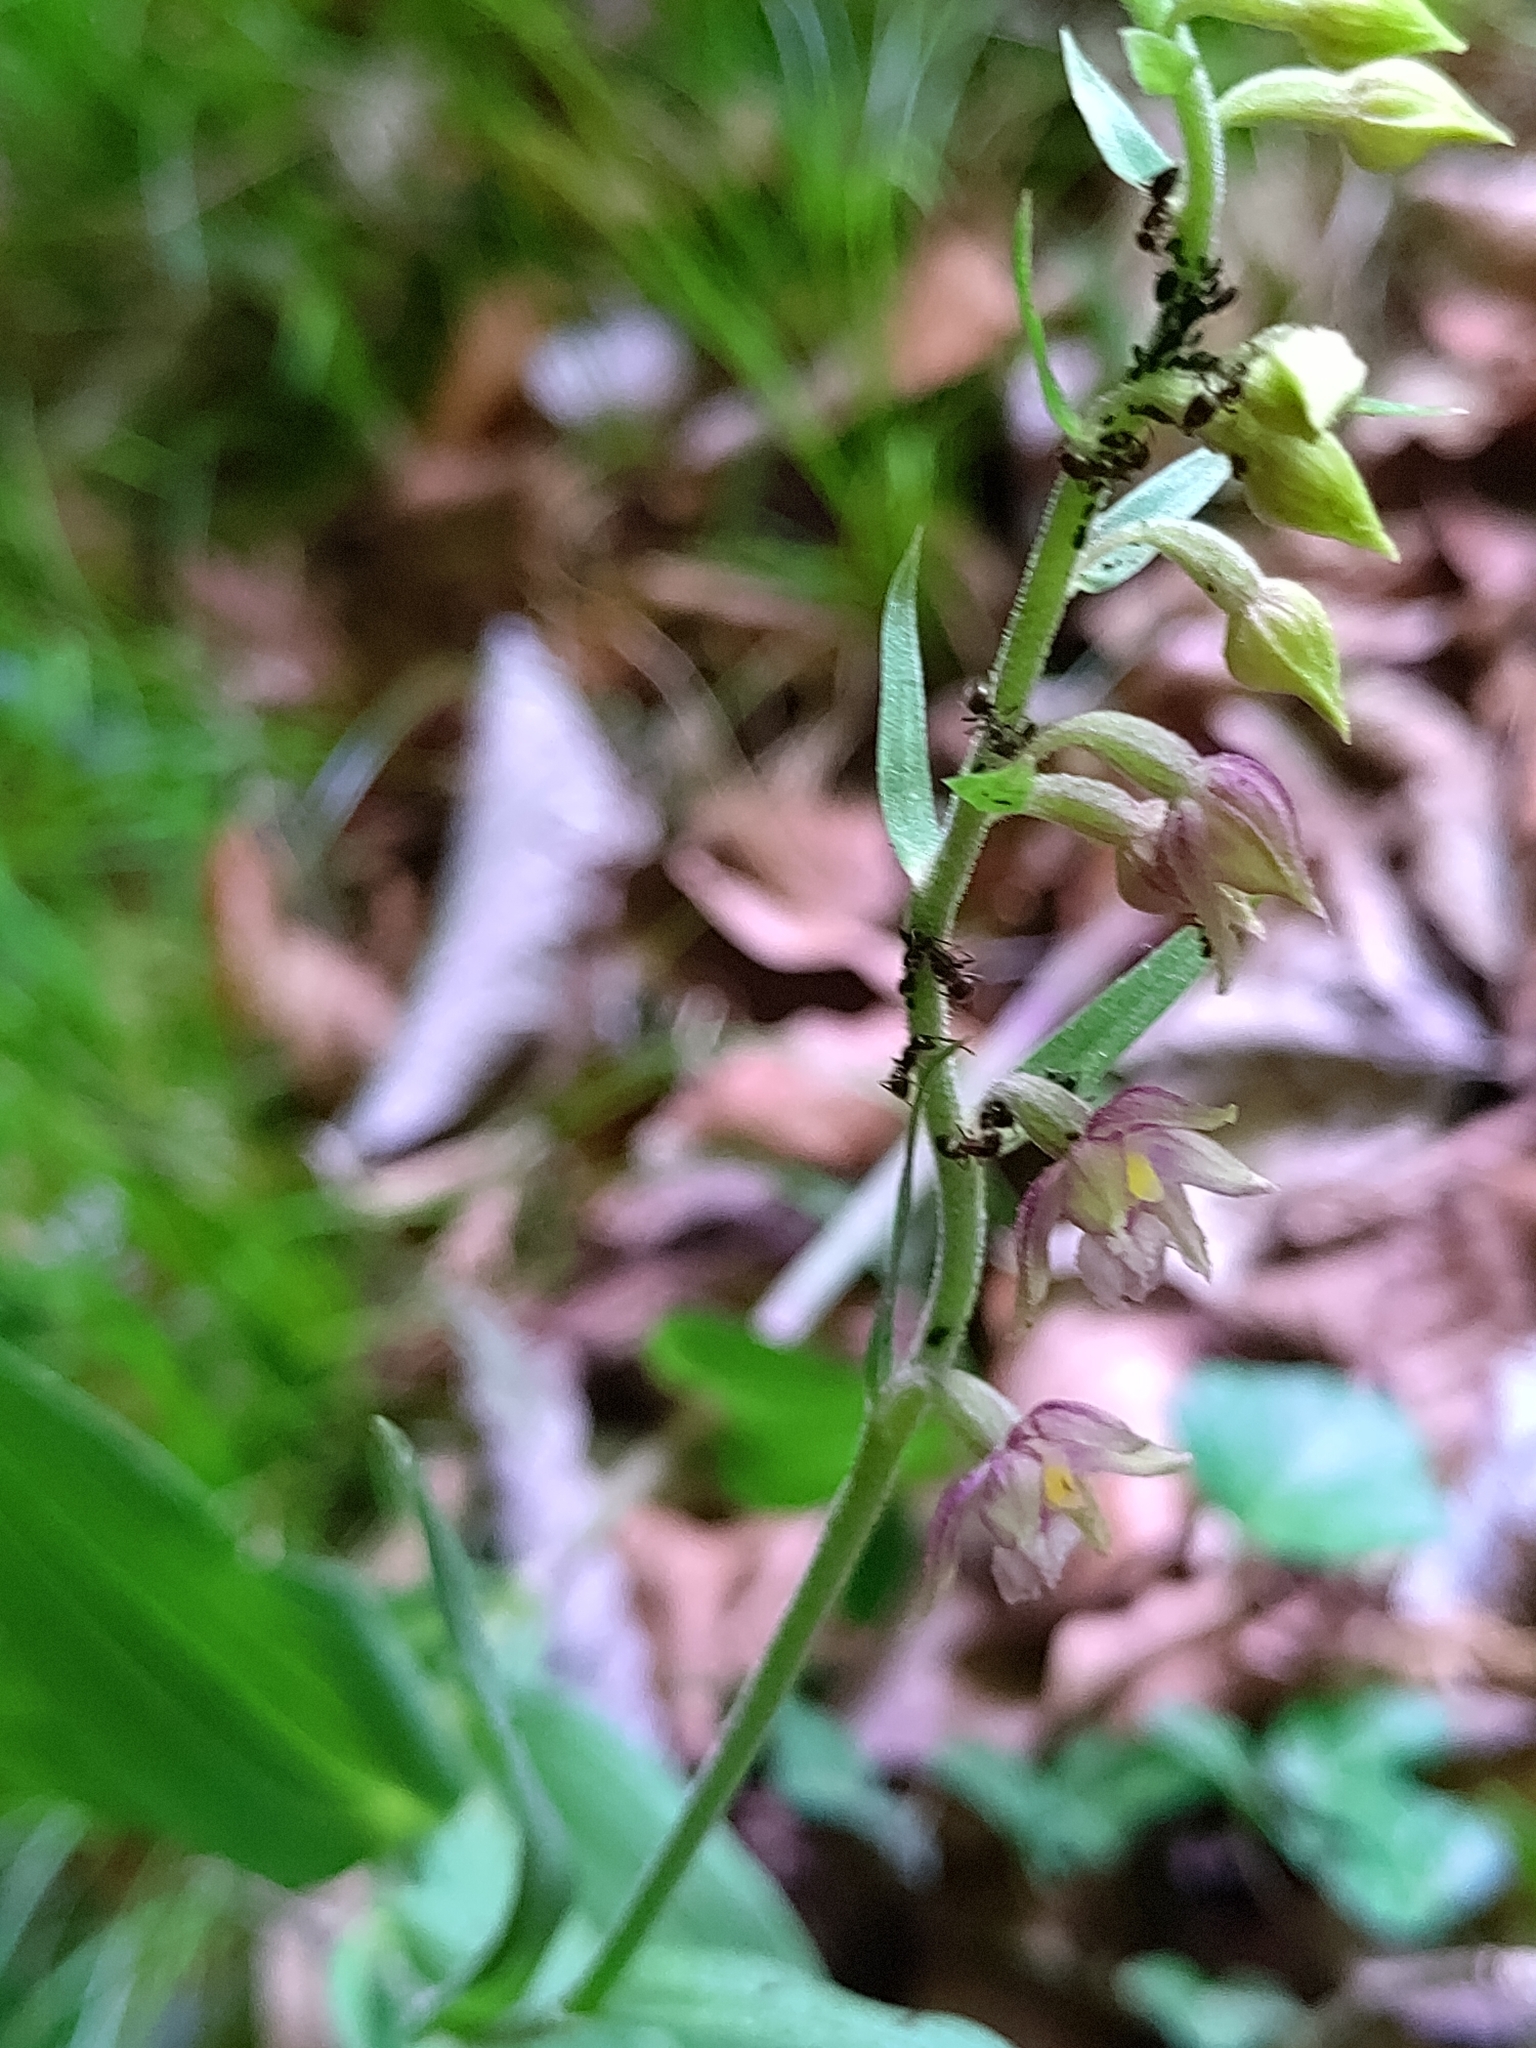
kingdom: Plantae
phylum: Tracheophyta
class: Liliopsida
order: Asparagales
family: Orchidaceae
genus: Epipactis
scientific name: Epipactis atrorubens
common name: Dark-red helleborine
